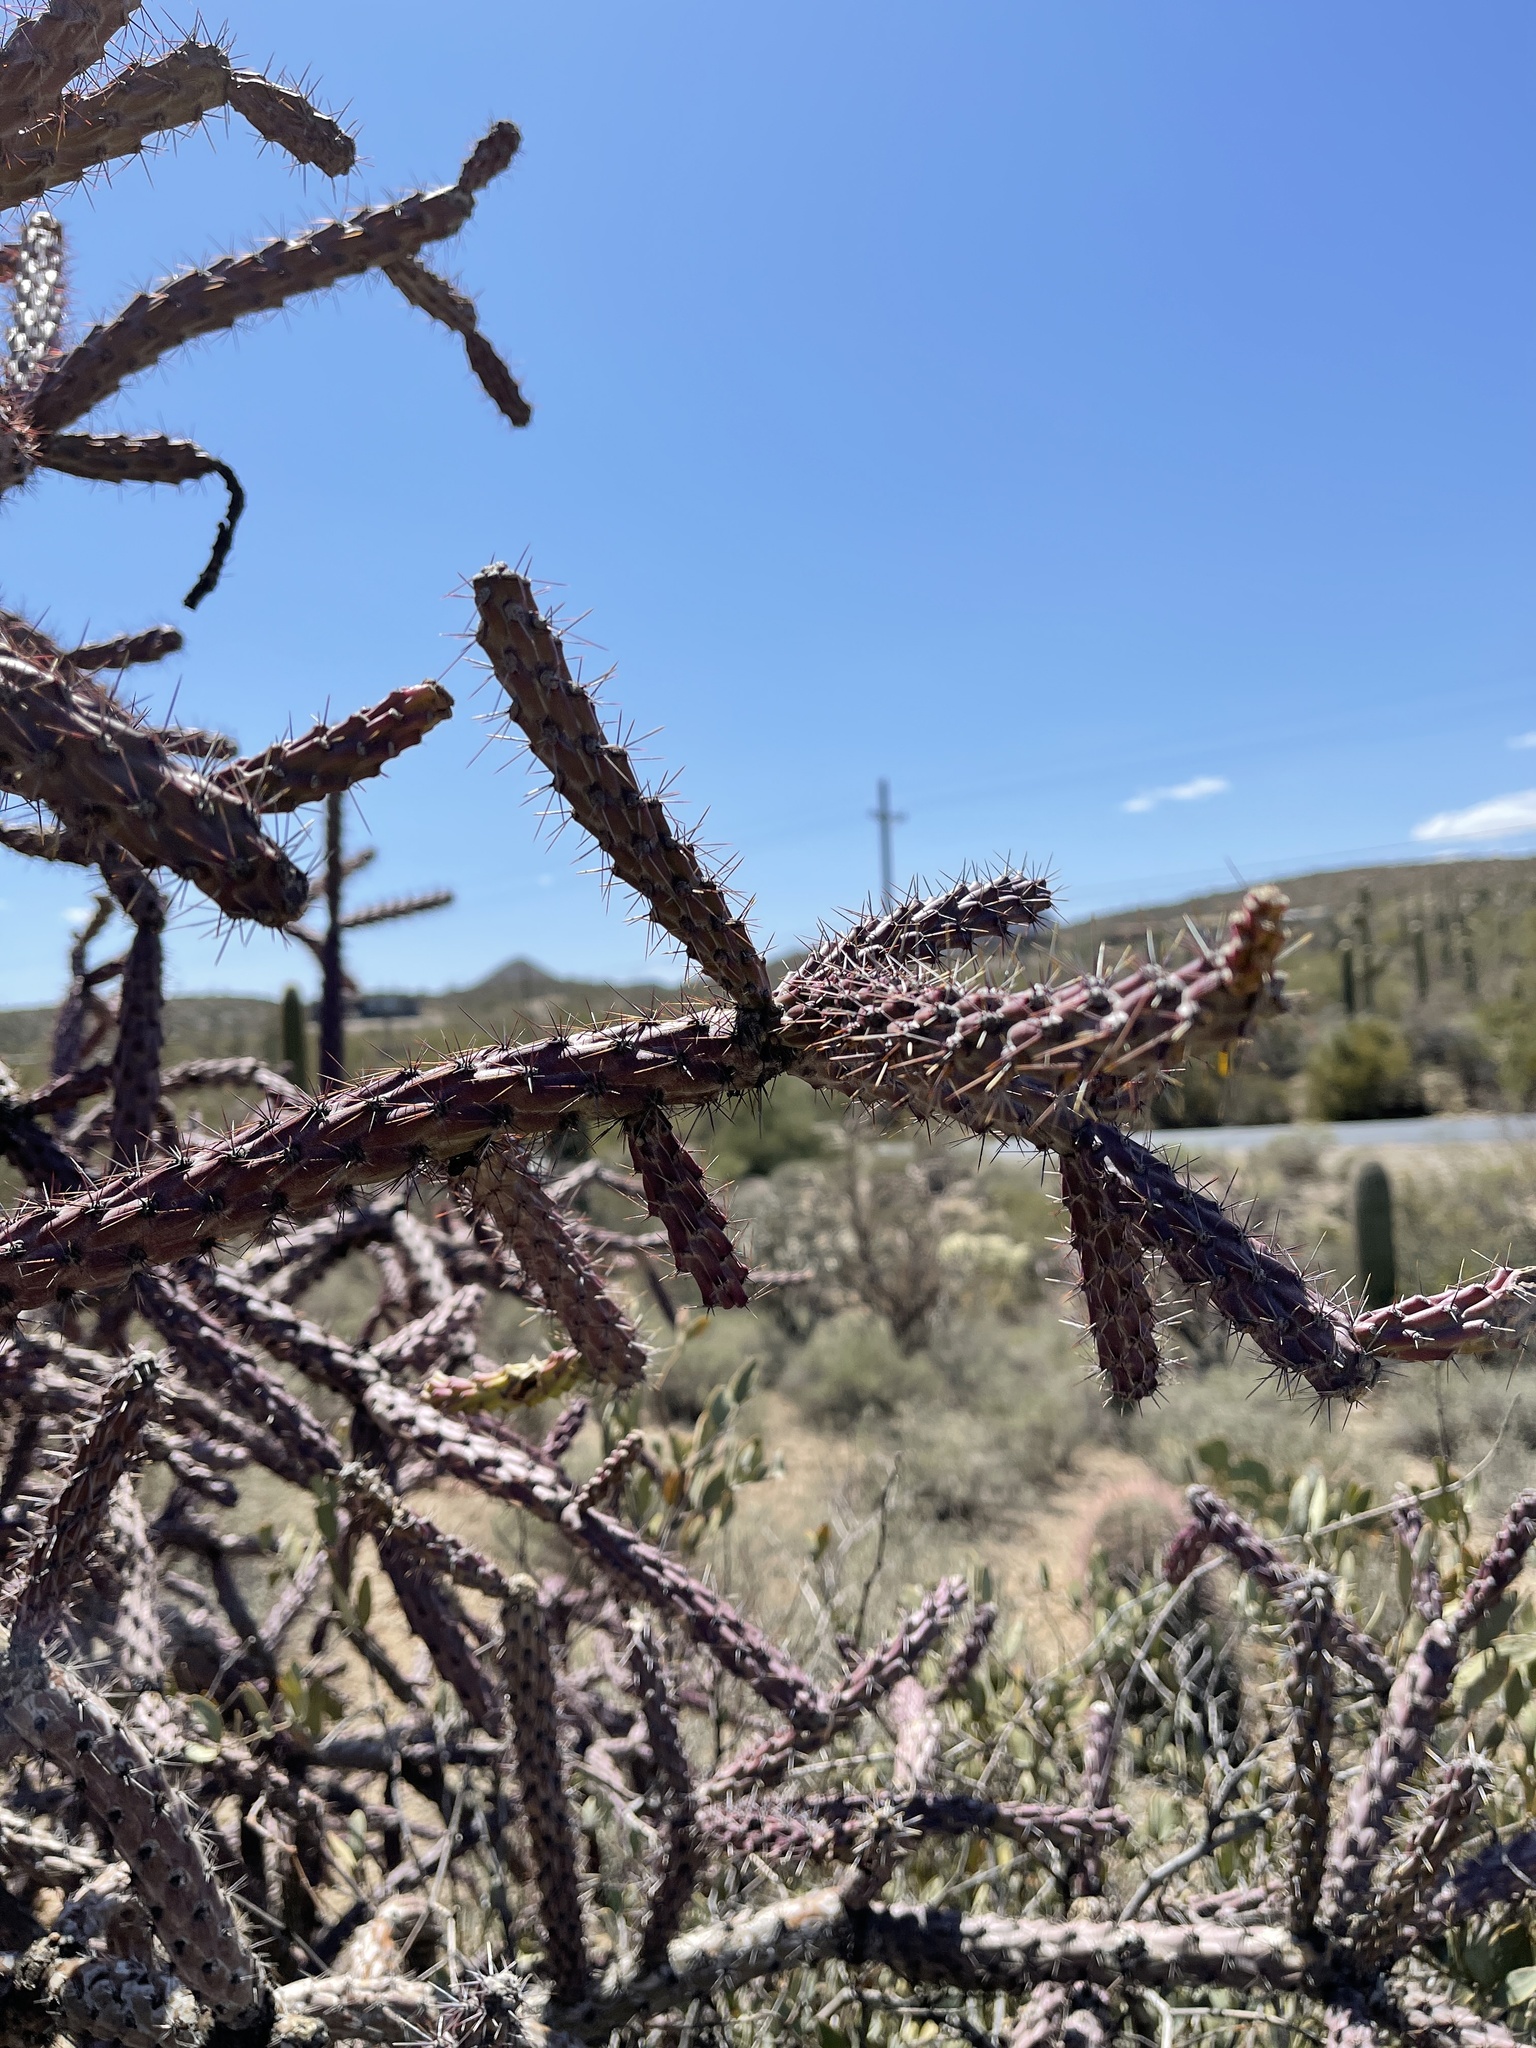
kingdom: Plantae
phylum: Tracheophyta
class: Magnoliopsida
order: Caryophyllales
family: Cactaceae
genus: Cylindropuntia
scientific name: Cylindropuntia thurberi
